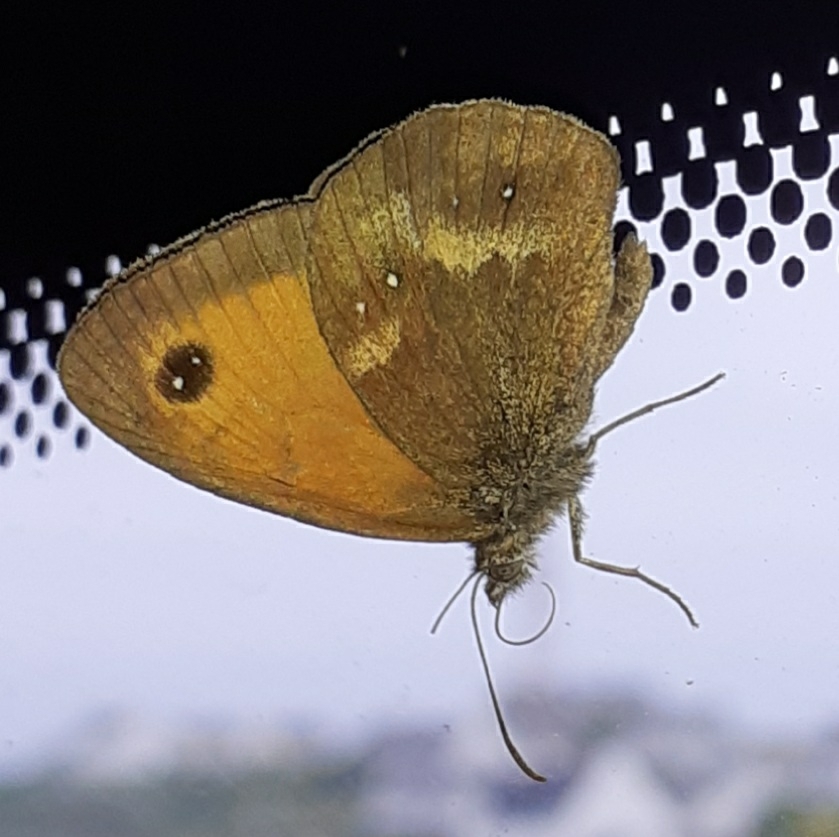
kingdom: Animalia
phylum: Arthropoda
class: Insecta
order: Lepidoptera
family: Nymphalidae
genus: Pyronia
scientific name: Pyronia tithonus
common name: Gatekeeper
